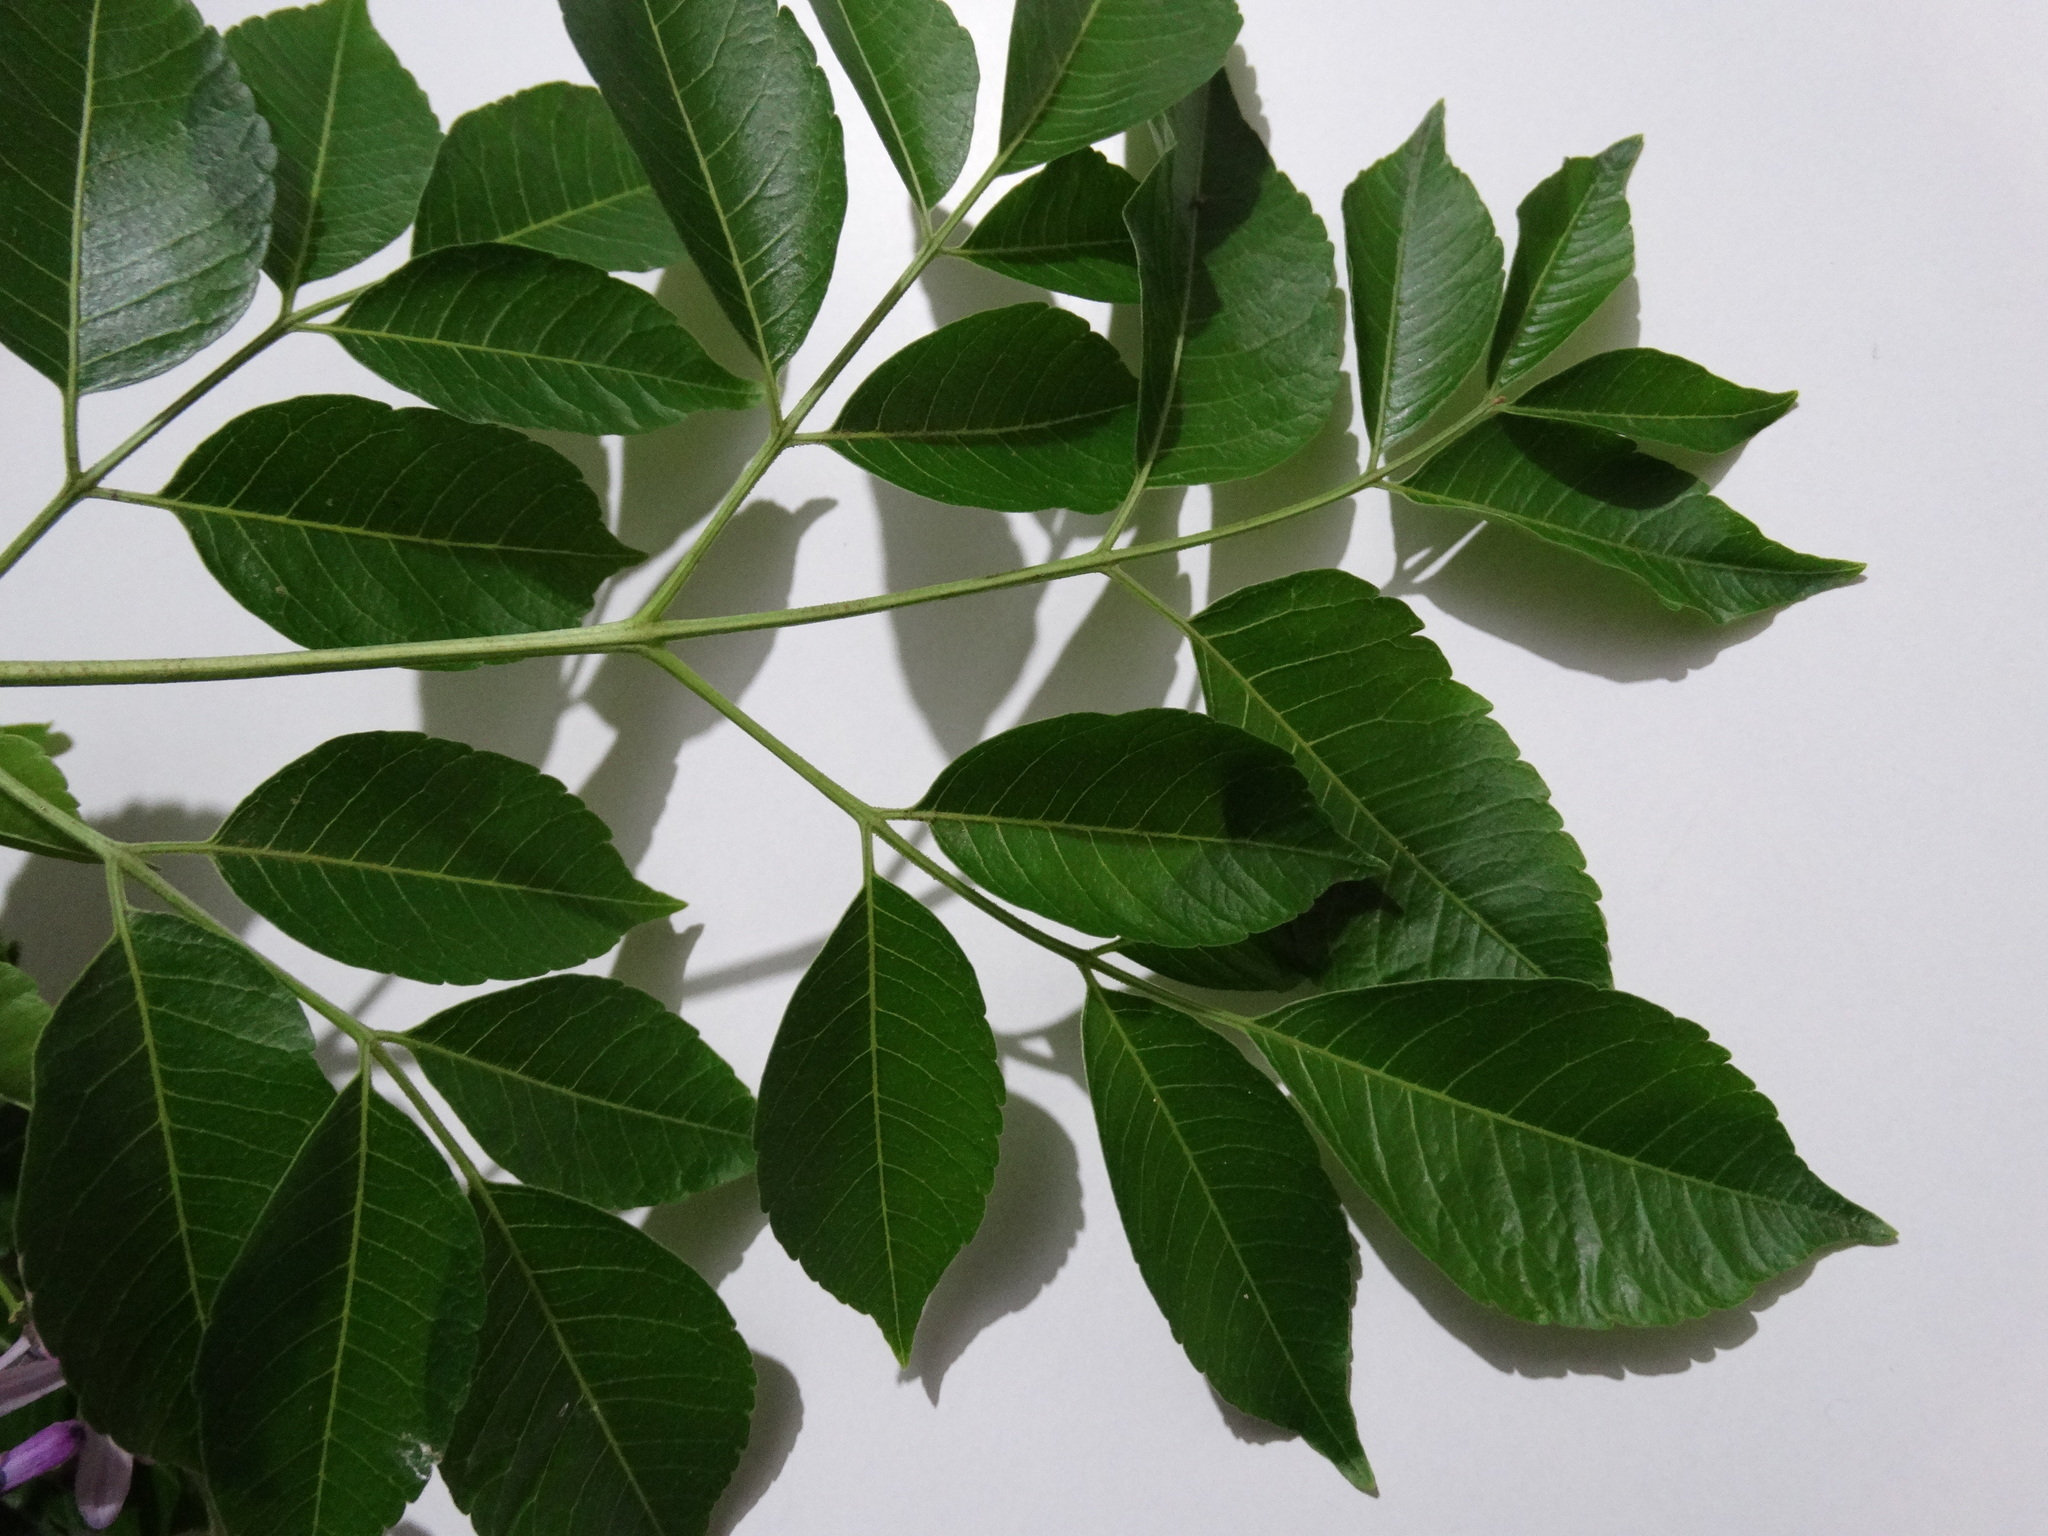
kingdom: Plantae
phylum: Tracheophyta
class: Magnoliopsida
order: Sapindales
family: Meliaceae
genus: Melia
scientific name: Melia azedarach
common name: Chinaberrytree
